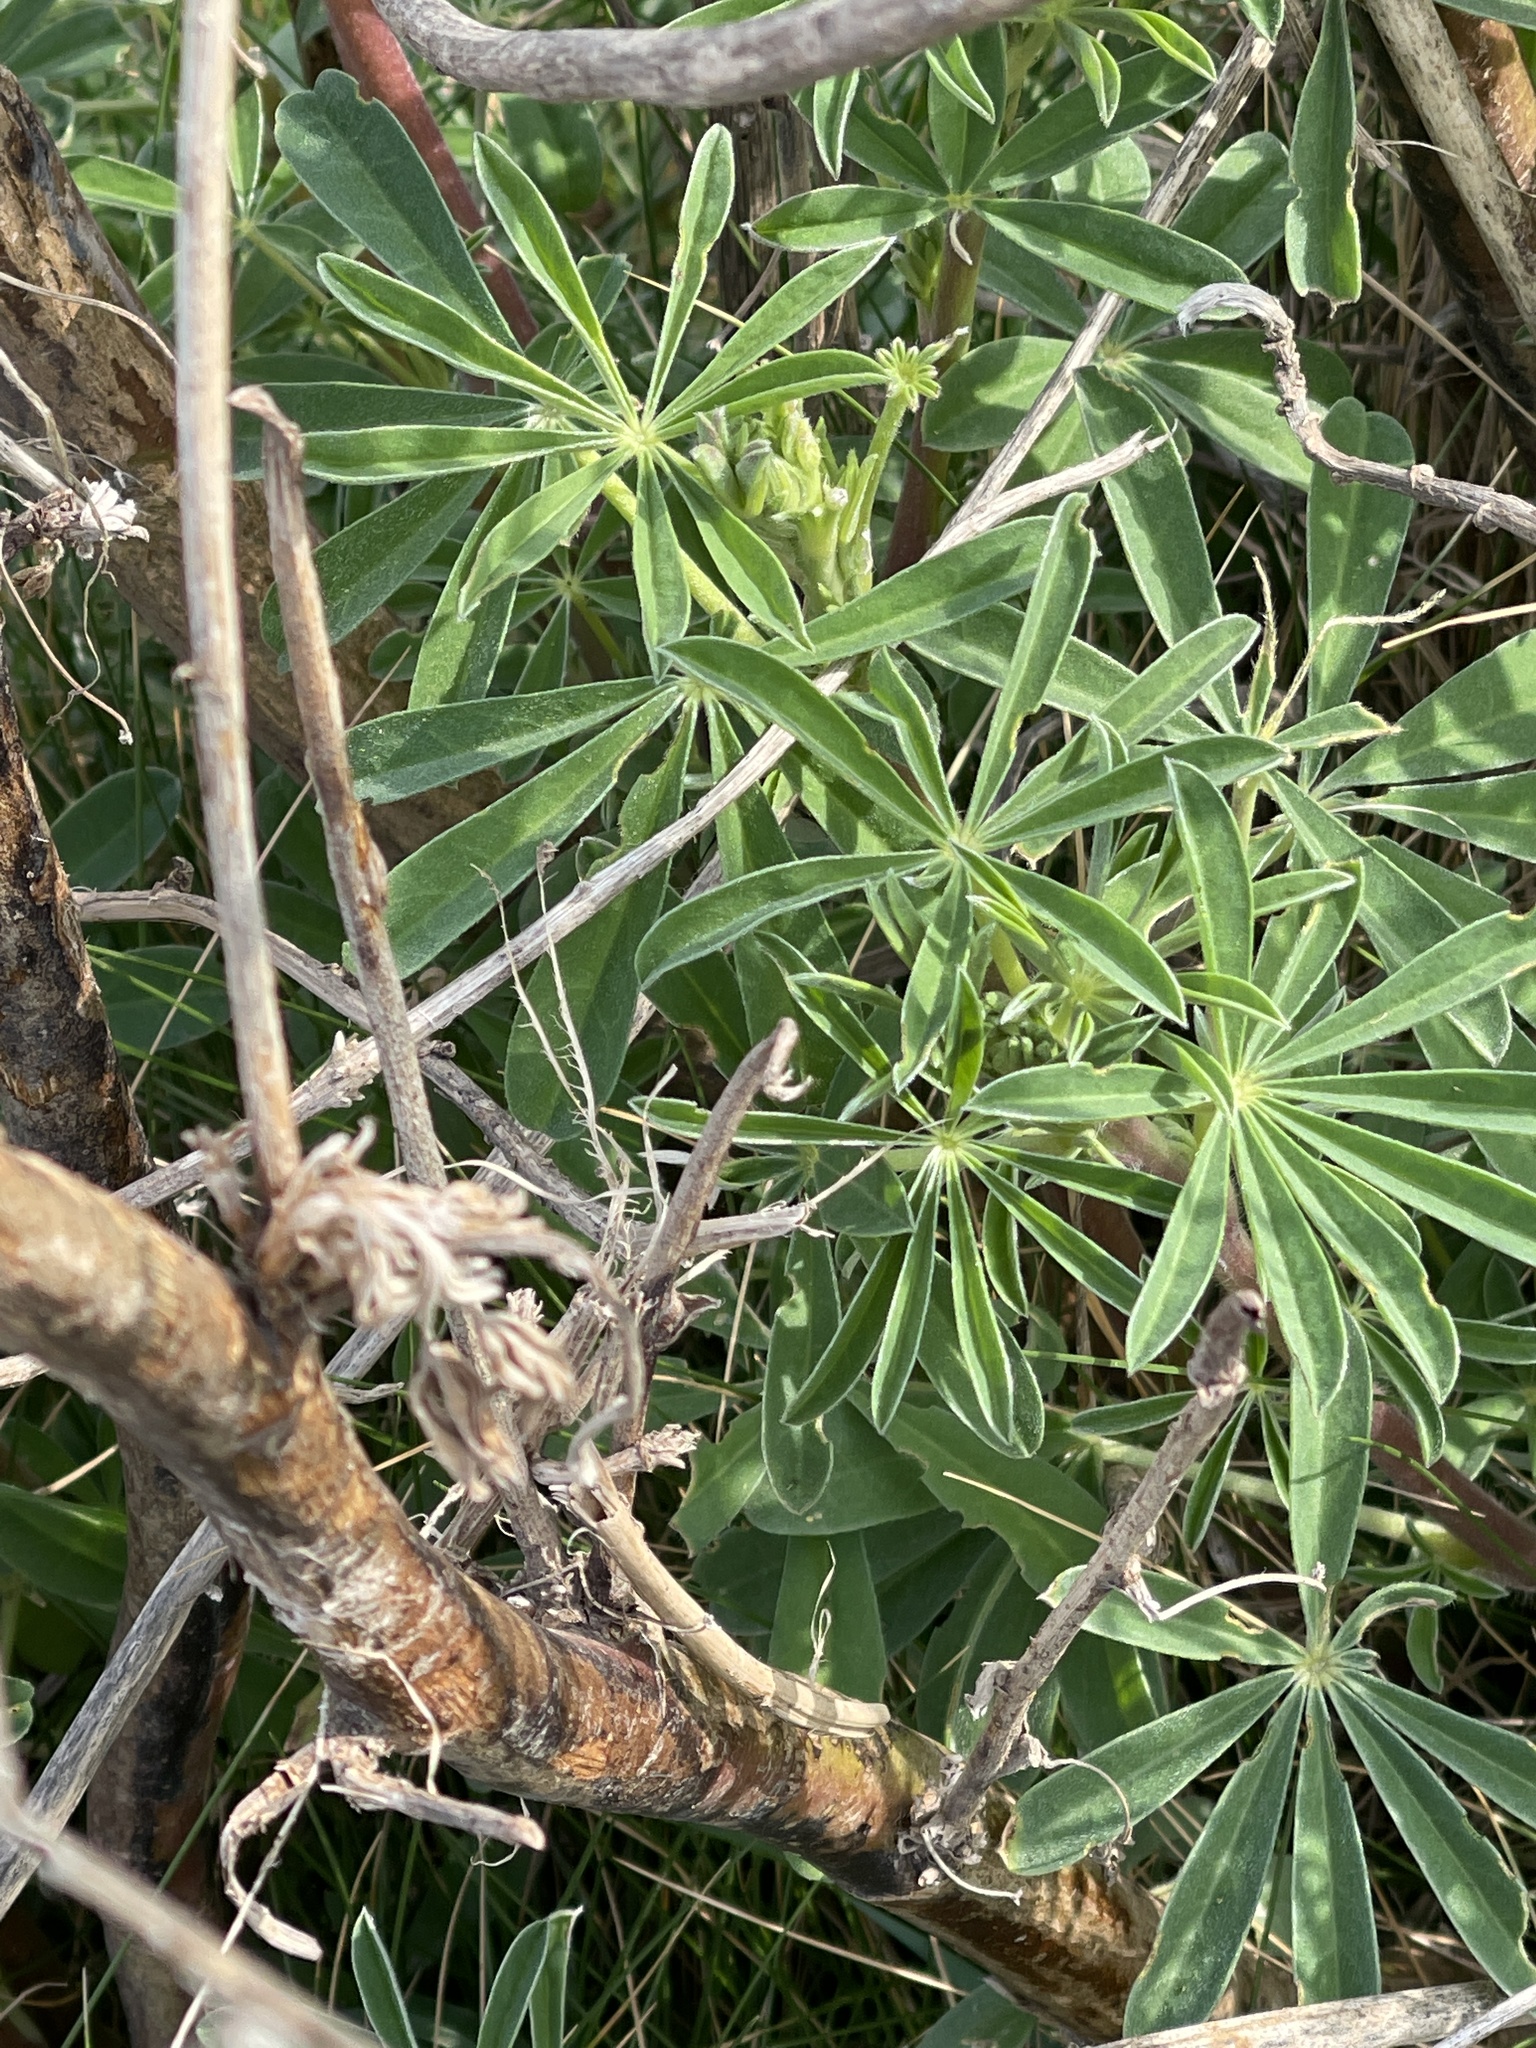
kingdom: Plantae
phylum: Tracheophyta
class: Magnoliopsida
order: Fabales
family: Fabaceae
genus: Lupinus
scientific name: Lupinus arboreus
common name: Yellow bush lupine
